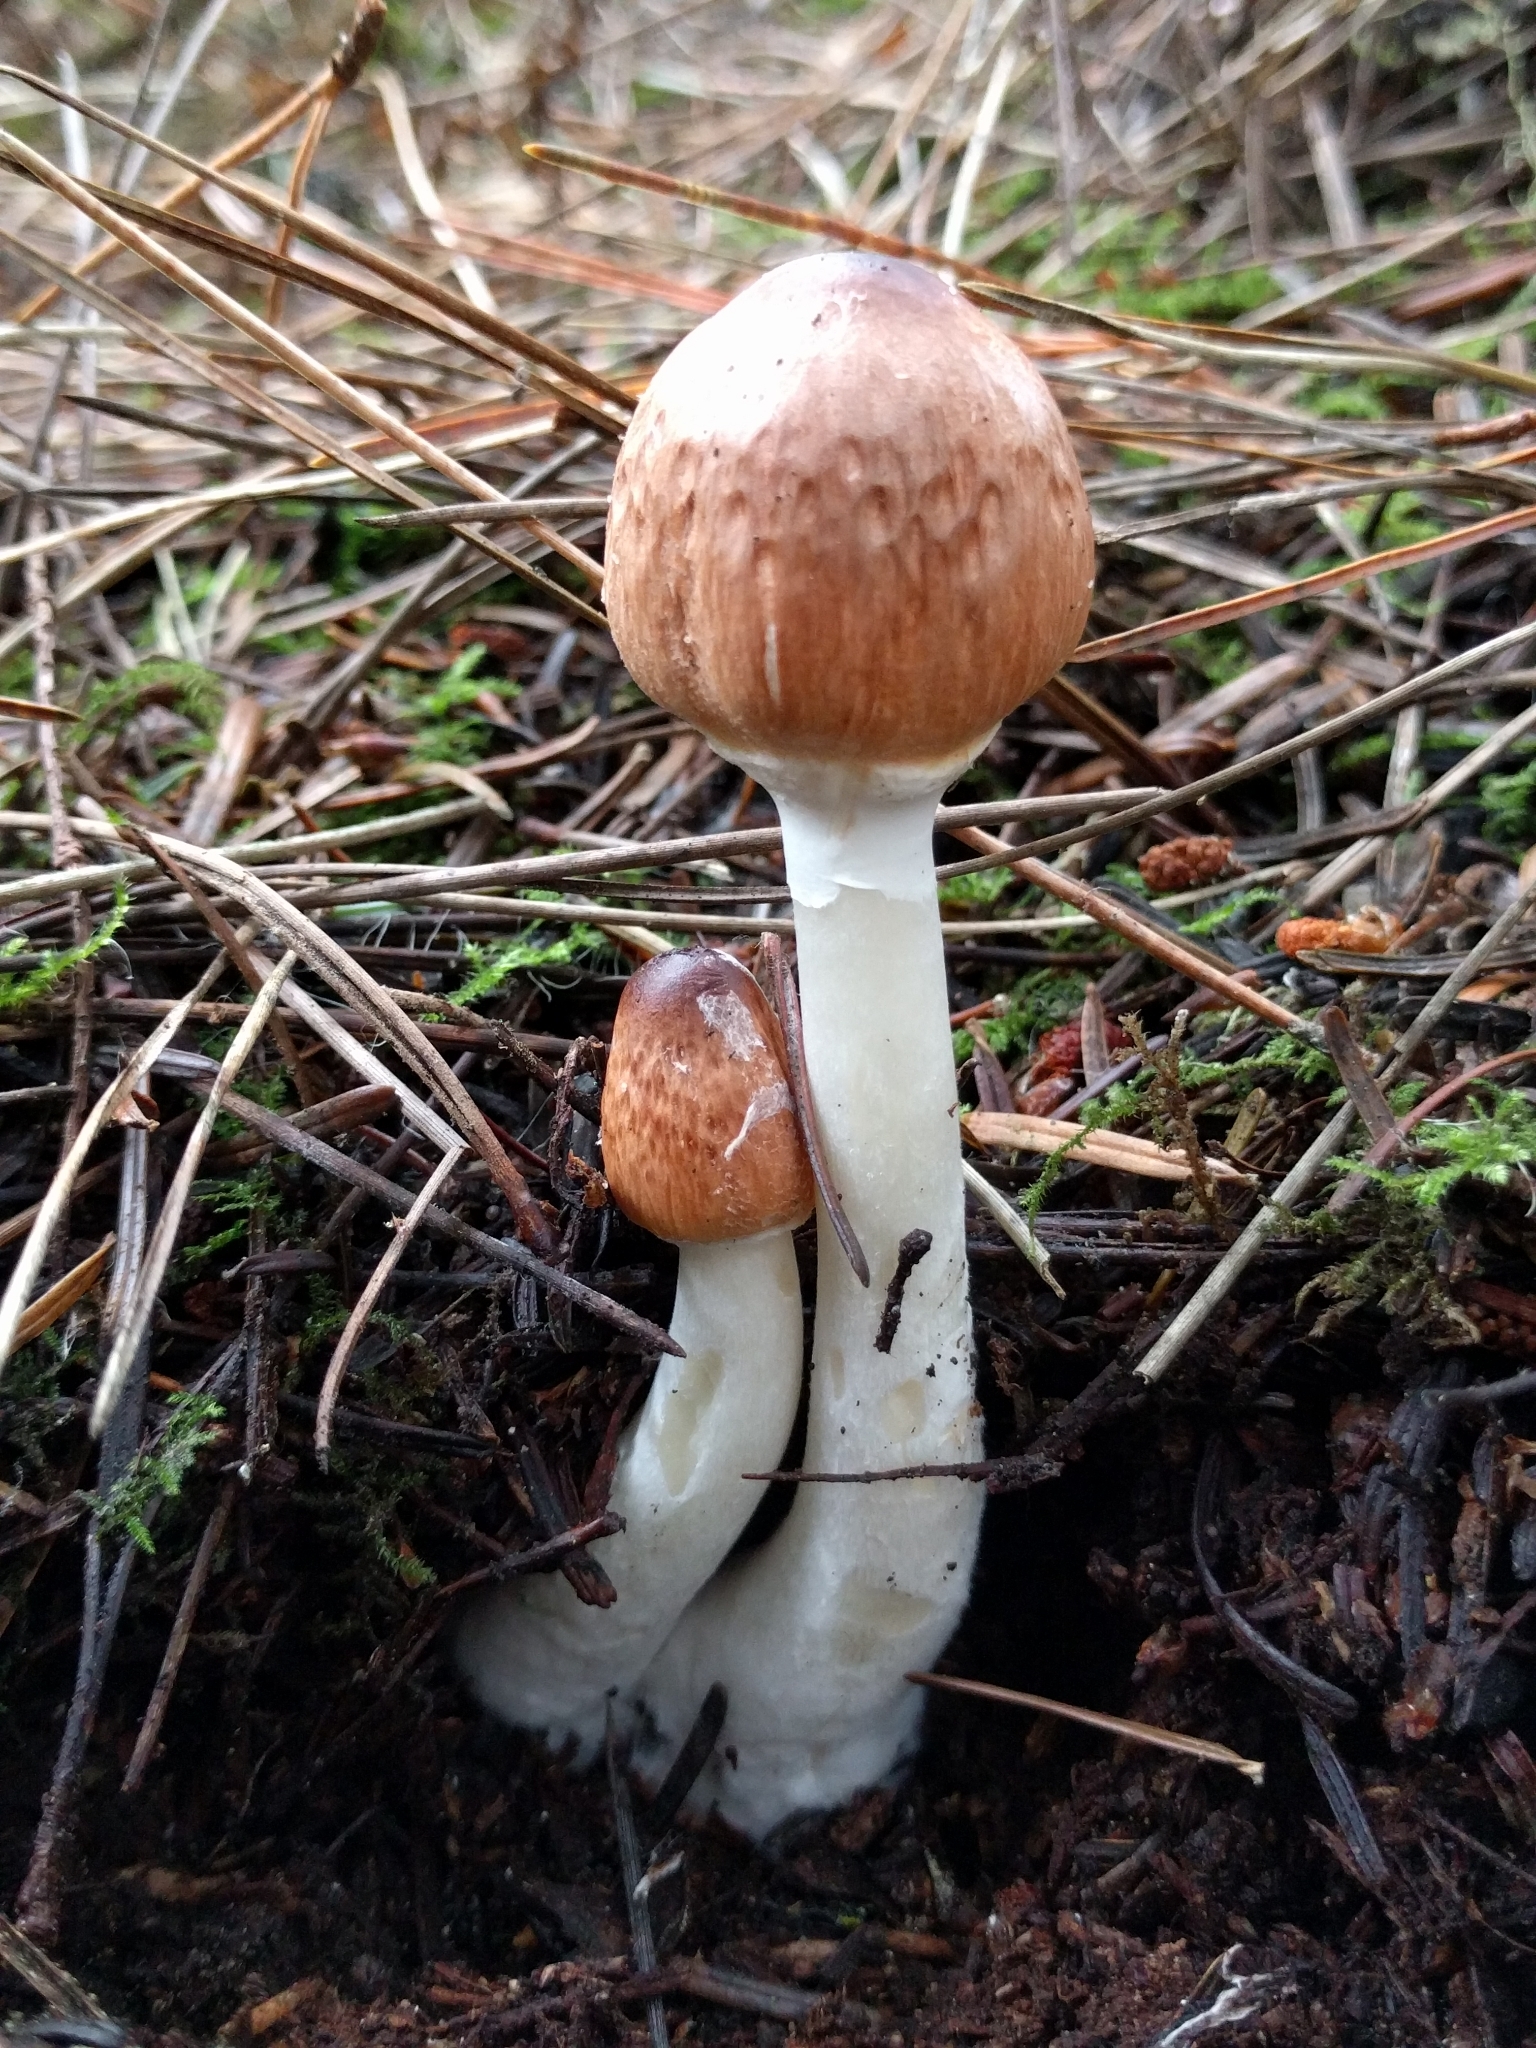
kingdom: Fungi
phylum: Basidiomycota
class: Agaricomycetes
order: Agaricales
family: Agaricaceae
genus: Lepiota
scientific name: Lepiota rubrotinctoides
